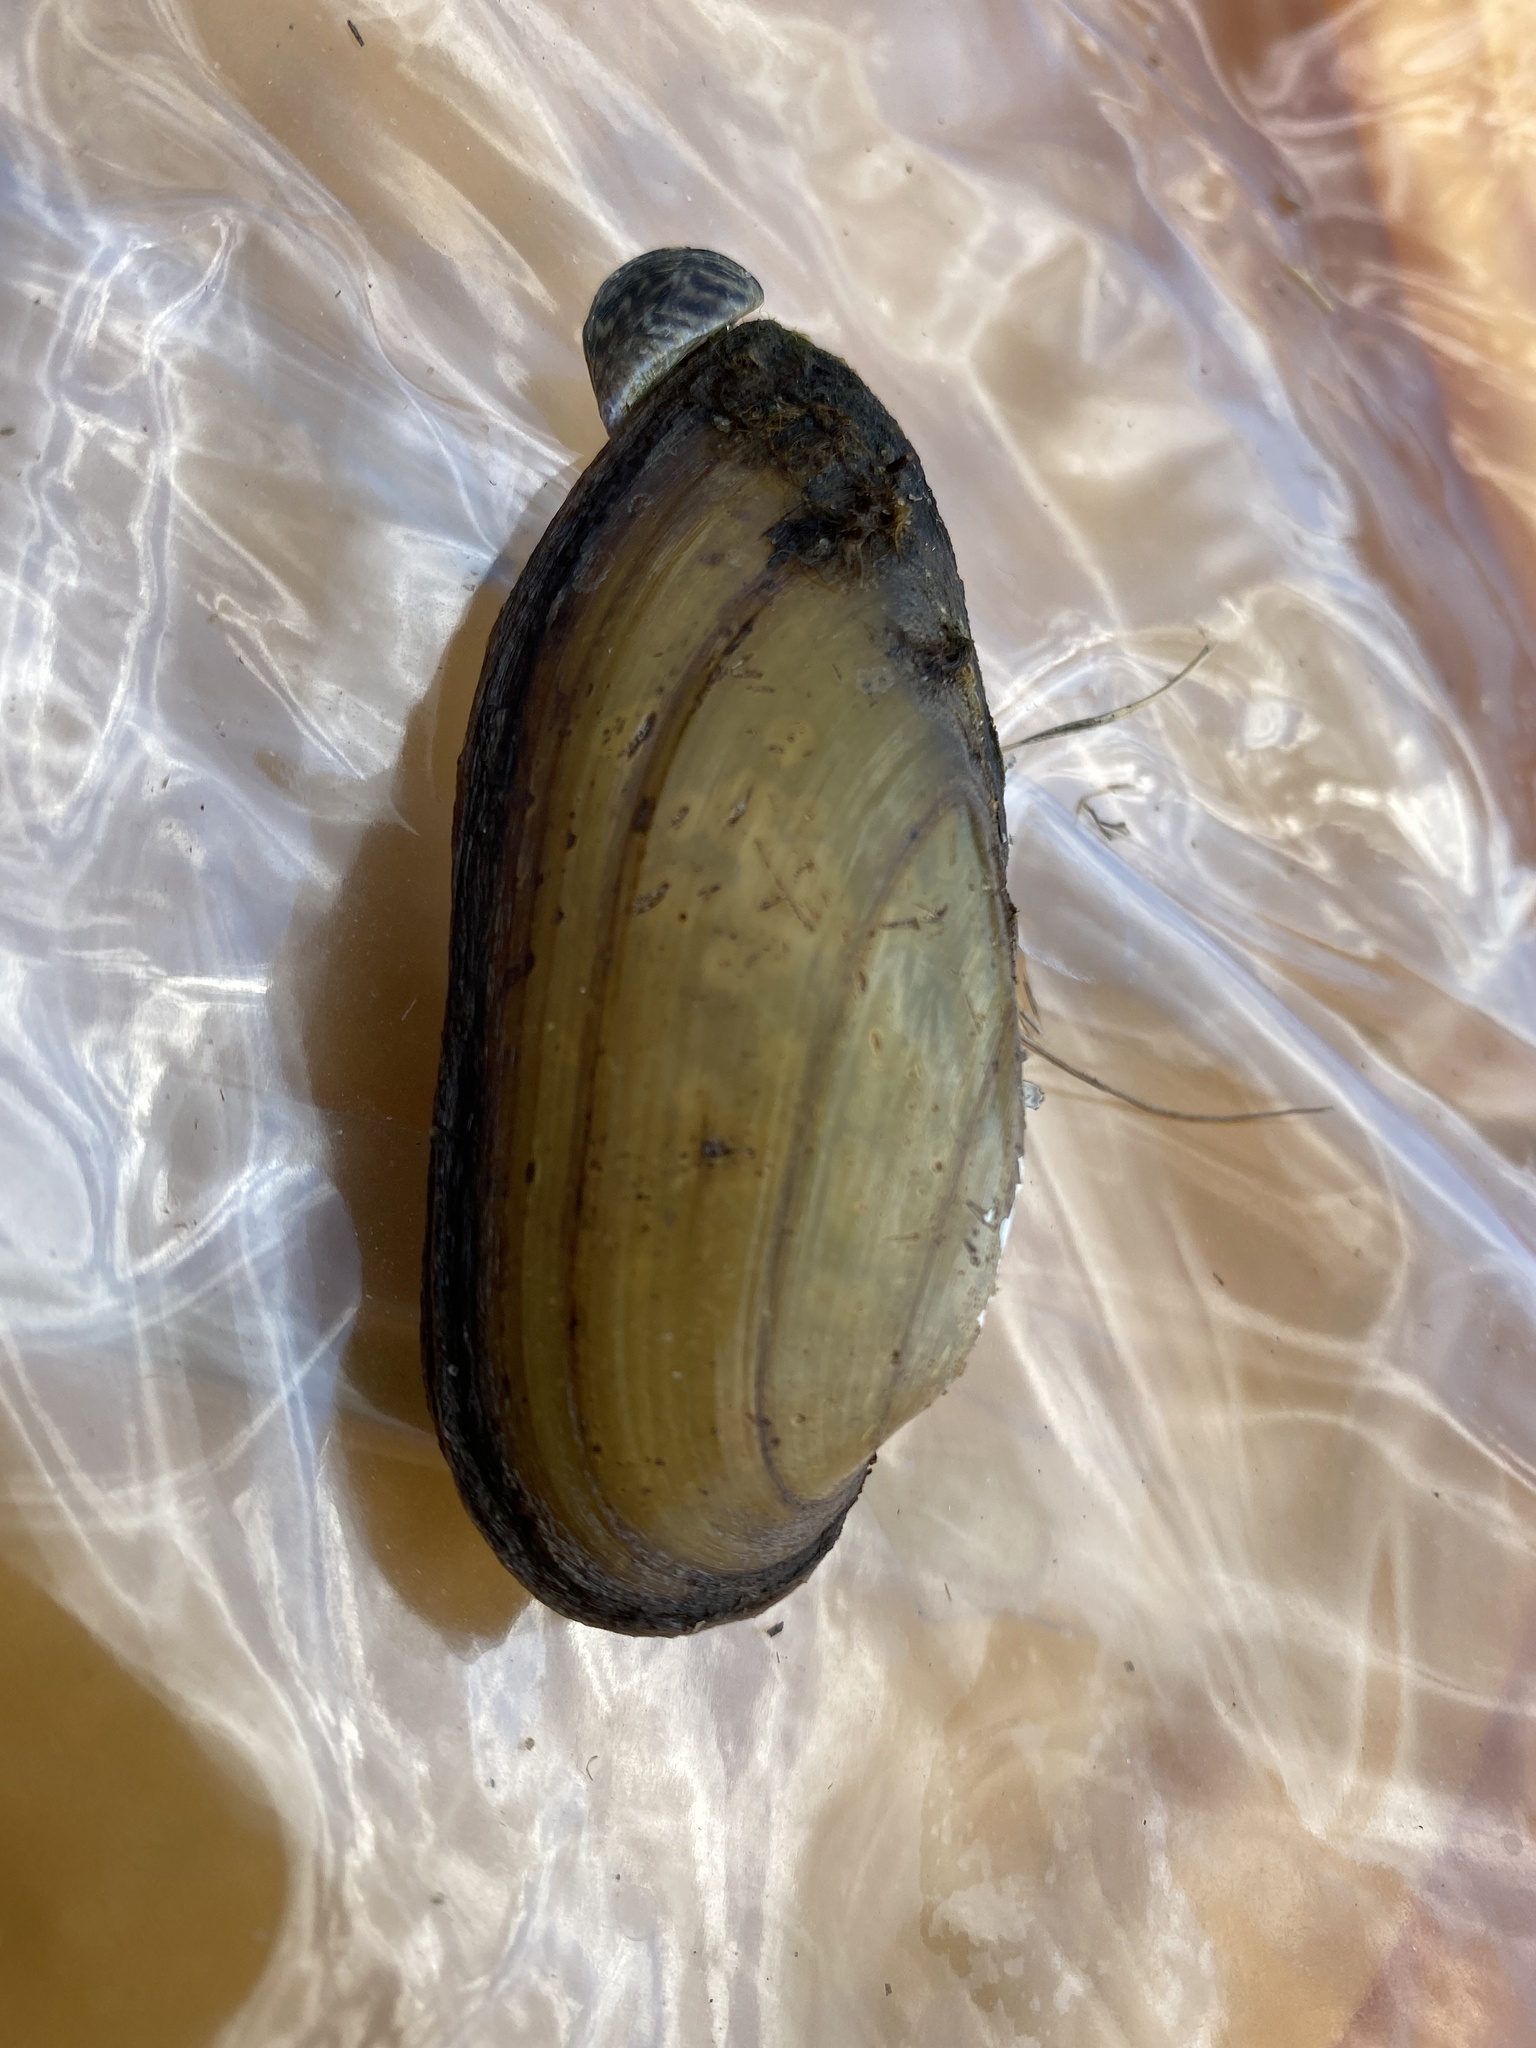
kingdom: Animalia
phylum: Mollusca
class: Bivalvia
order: Unionida
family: Unionidae
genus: Unio
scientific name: Unio pictorum
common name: Painter's mussel
